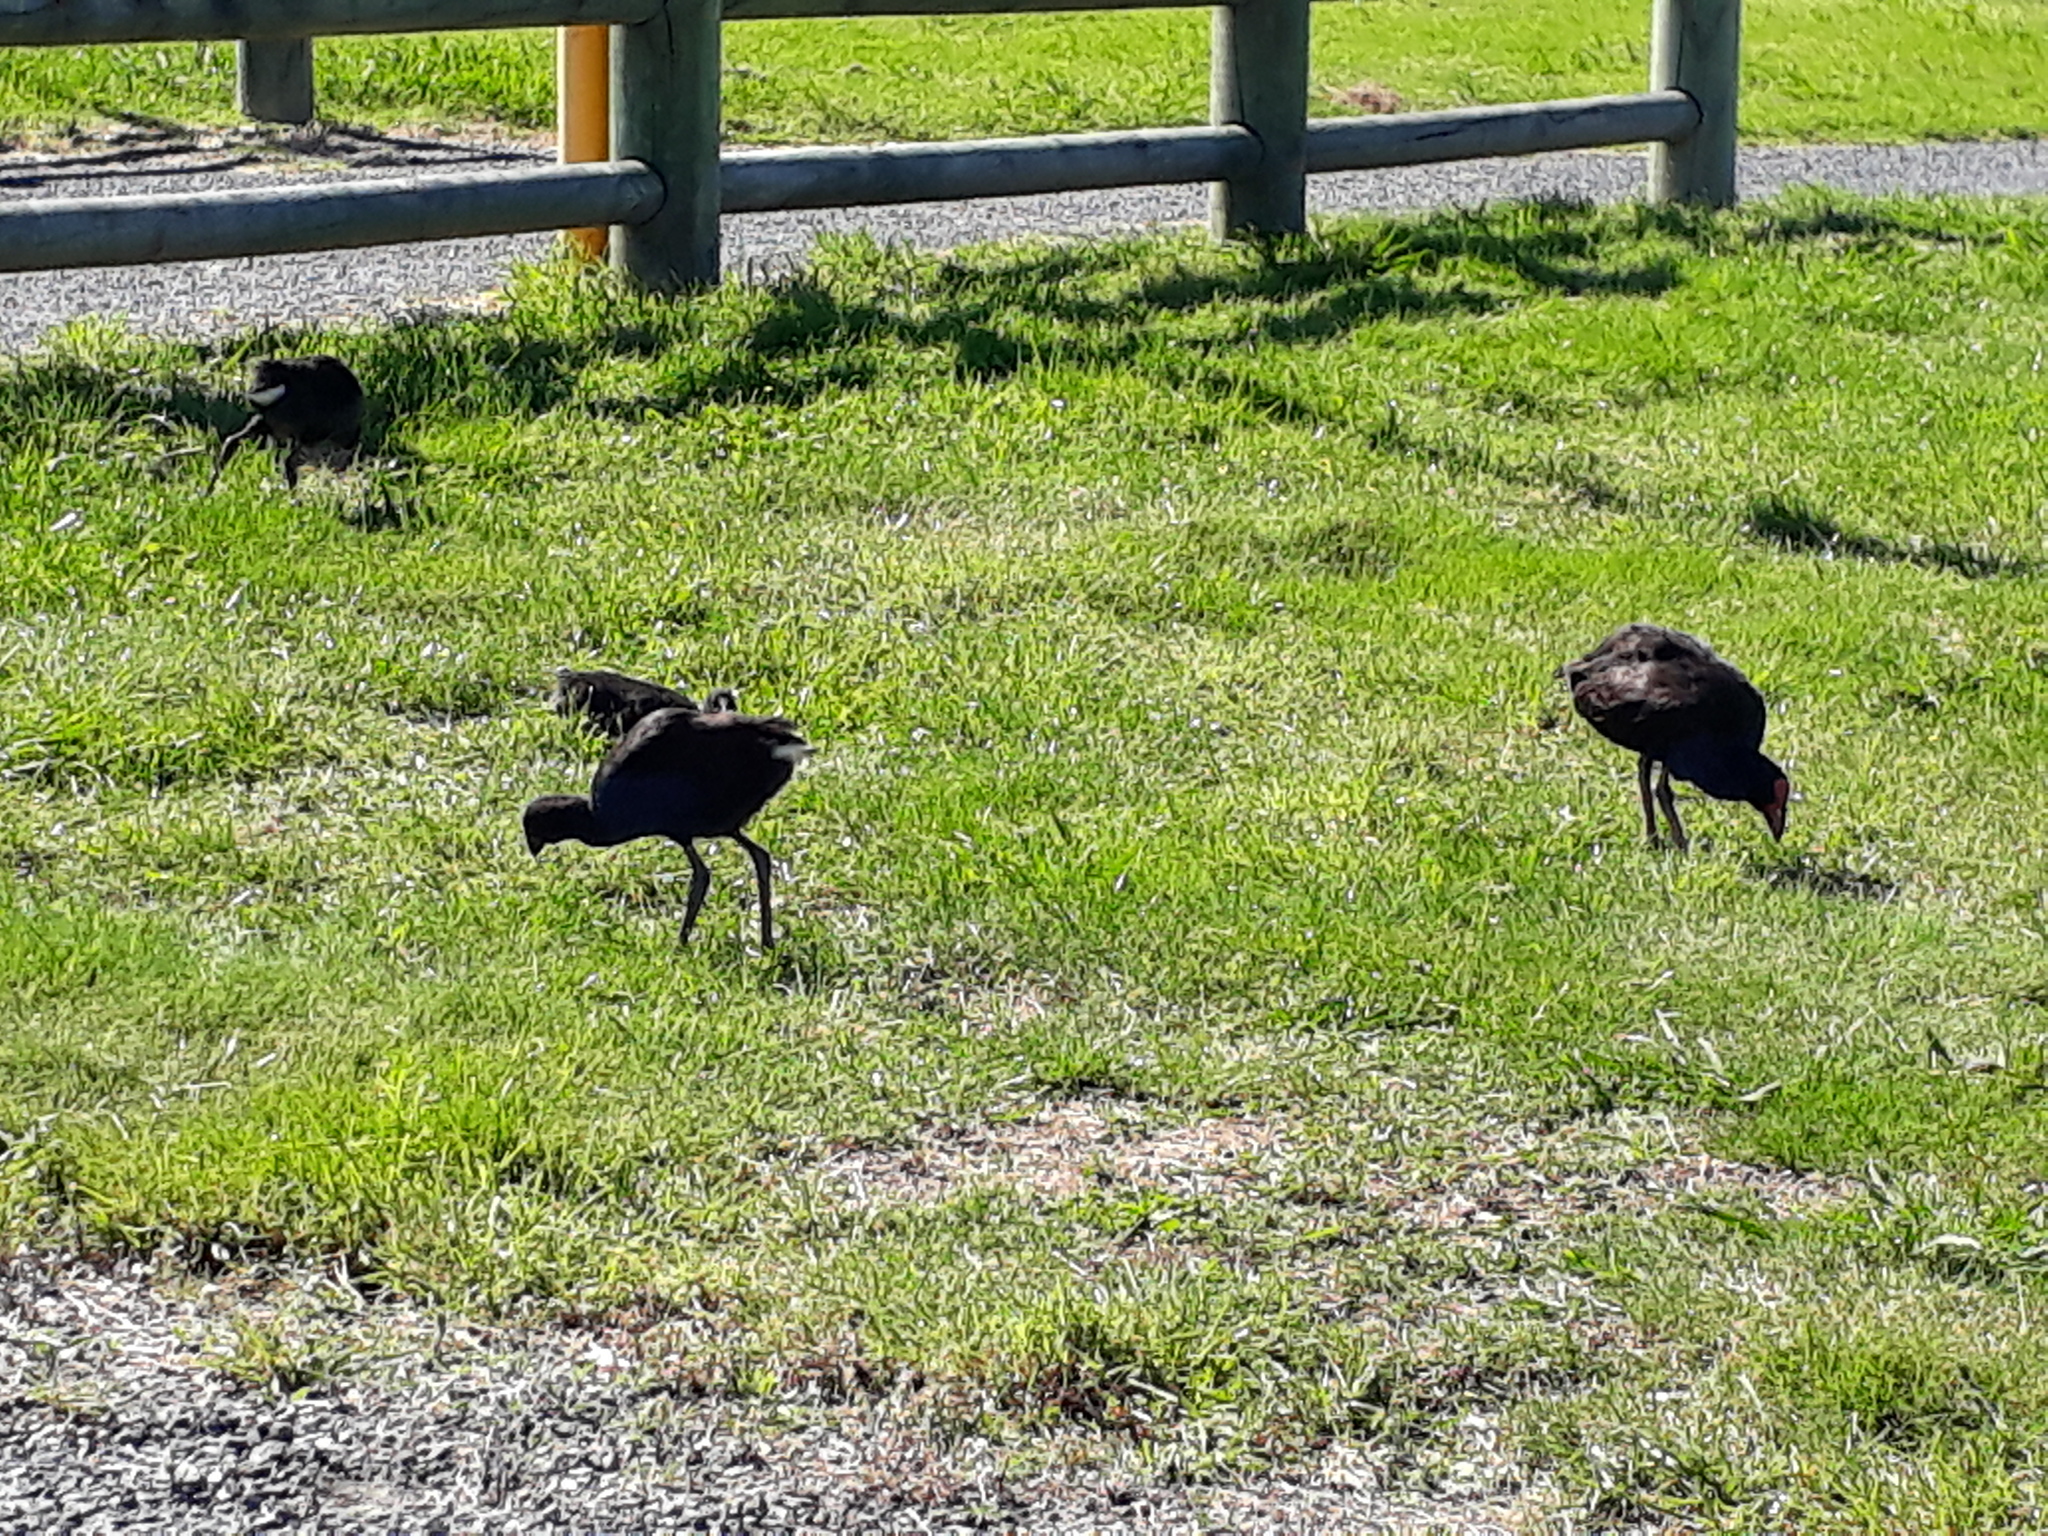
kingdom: Animalia
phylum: Chordata
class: Aves
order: Gruiformes
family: Rallidae
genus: Porphyrio
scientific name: Porphyrio melanotus
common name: Australasian swamphen
